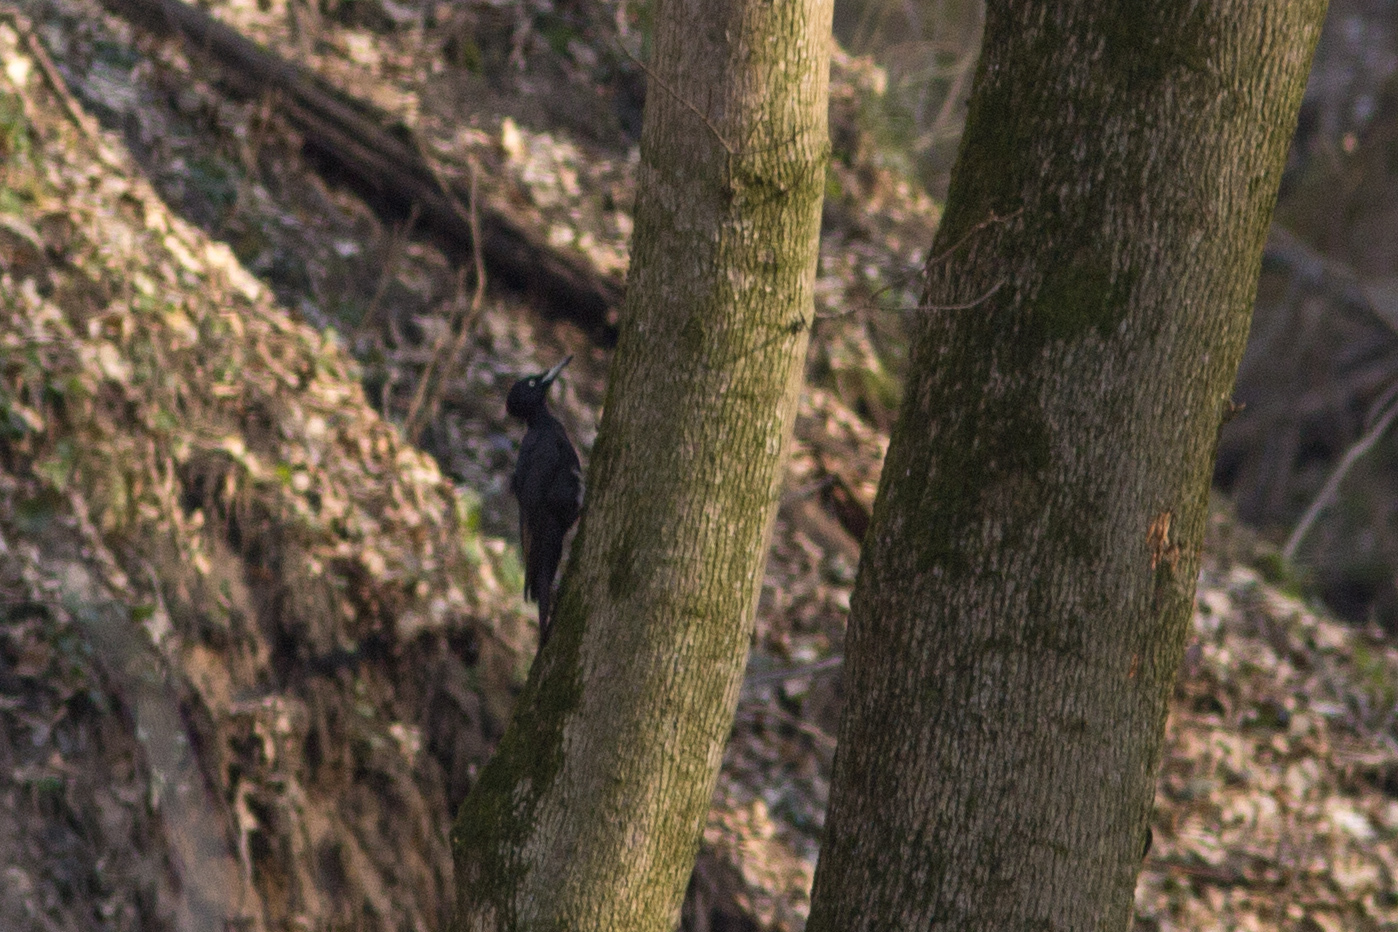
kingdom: Animalia
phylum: Chordata
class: Aves
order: Piciformes
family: Picidae
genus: Dryocopus
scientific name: Dryocopus martius
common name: Black woodpecker
